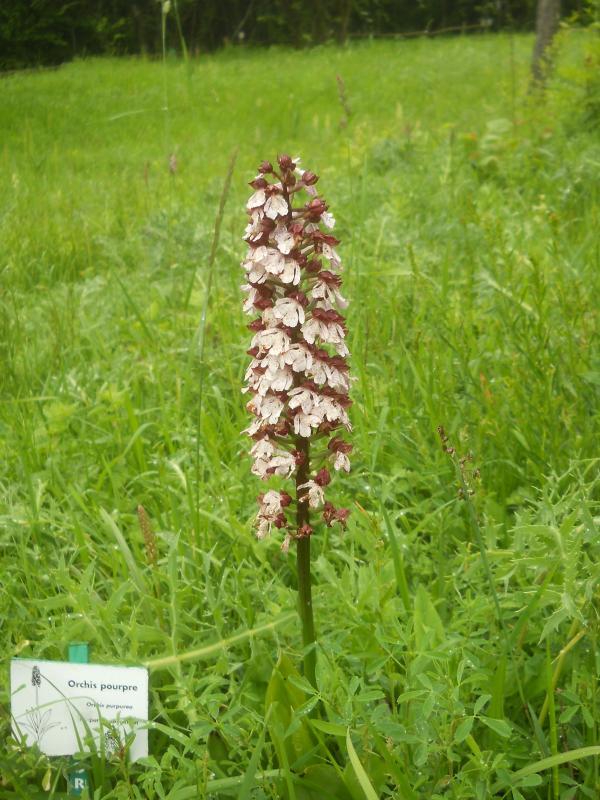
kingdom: Plantae
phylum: Tracheophyta
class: Liliopsida
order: Asparagales
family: Orchidaceae
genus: Orchis
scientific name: Orchis purpurea
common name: Lady orchid
